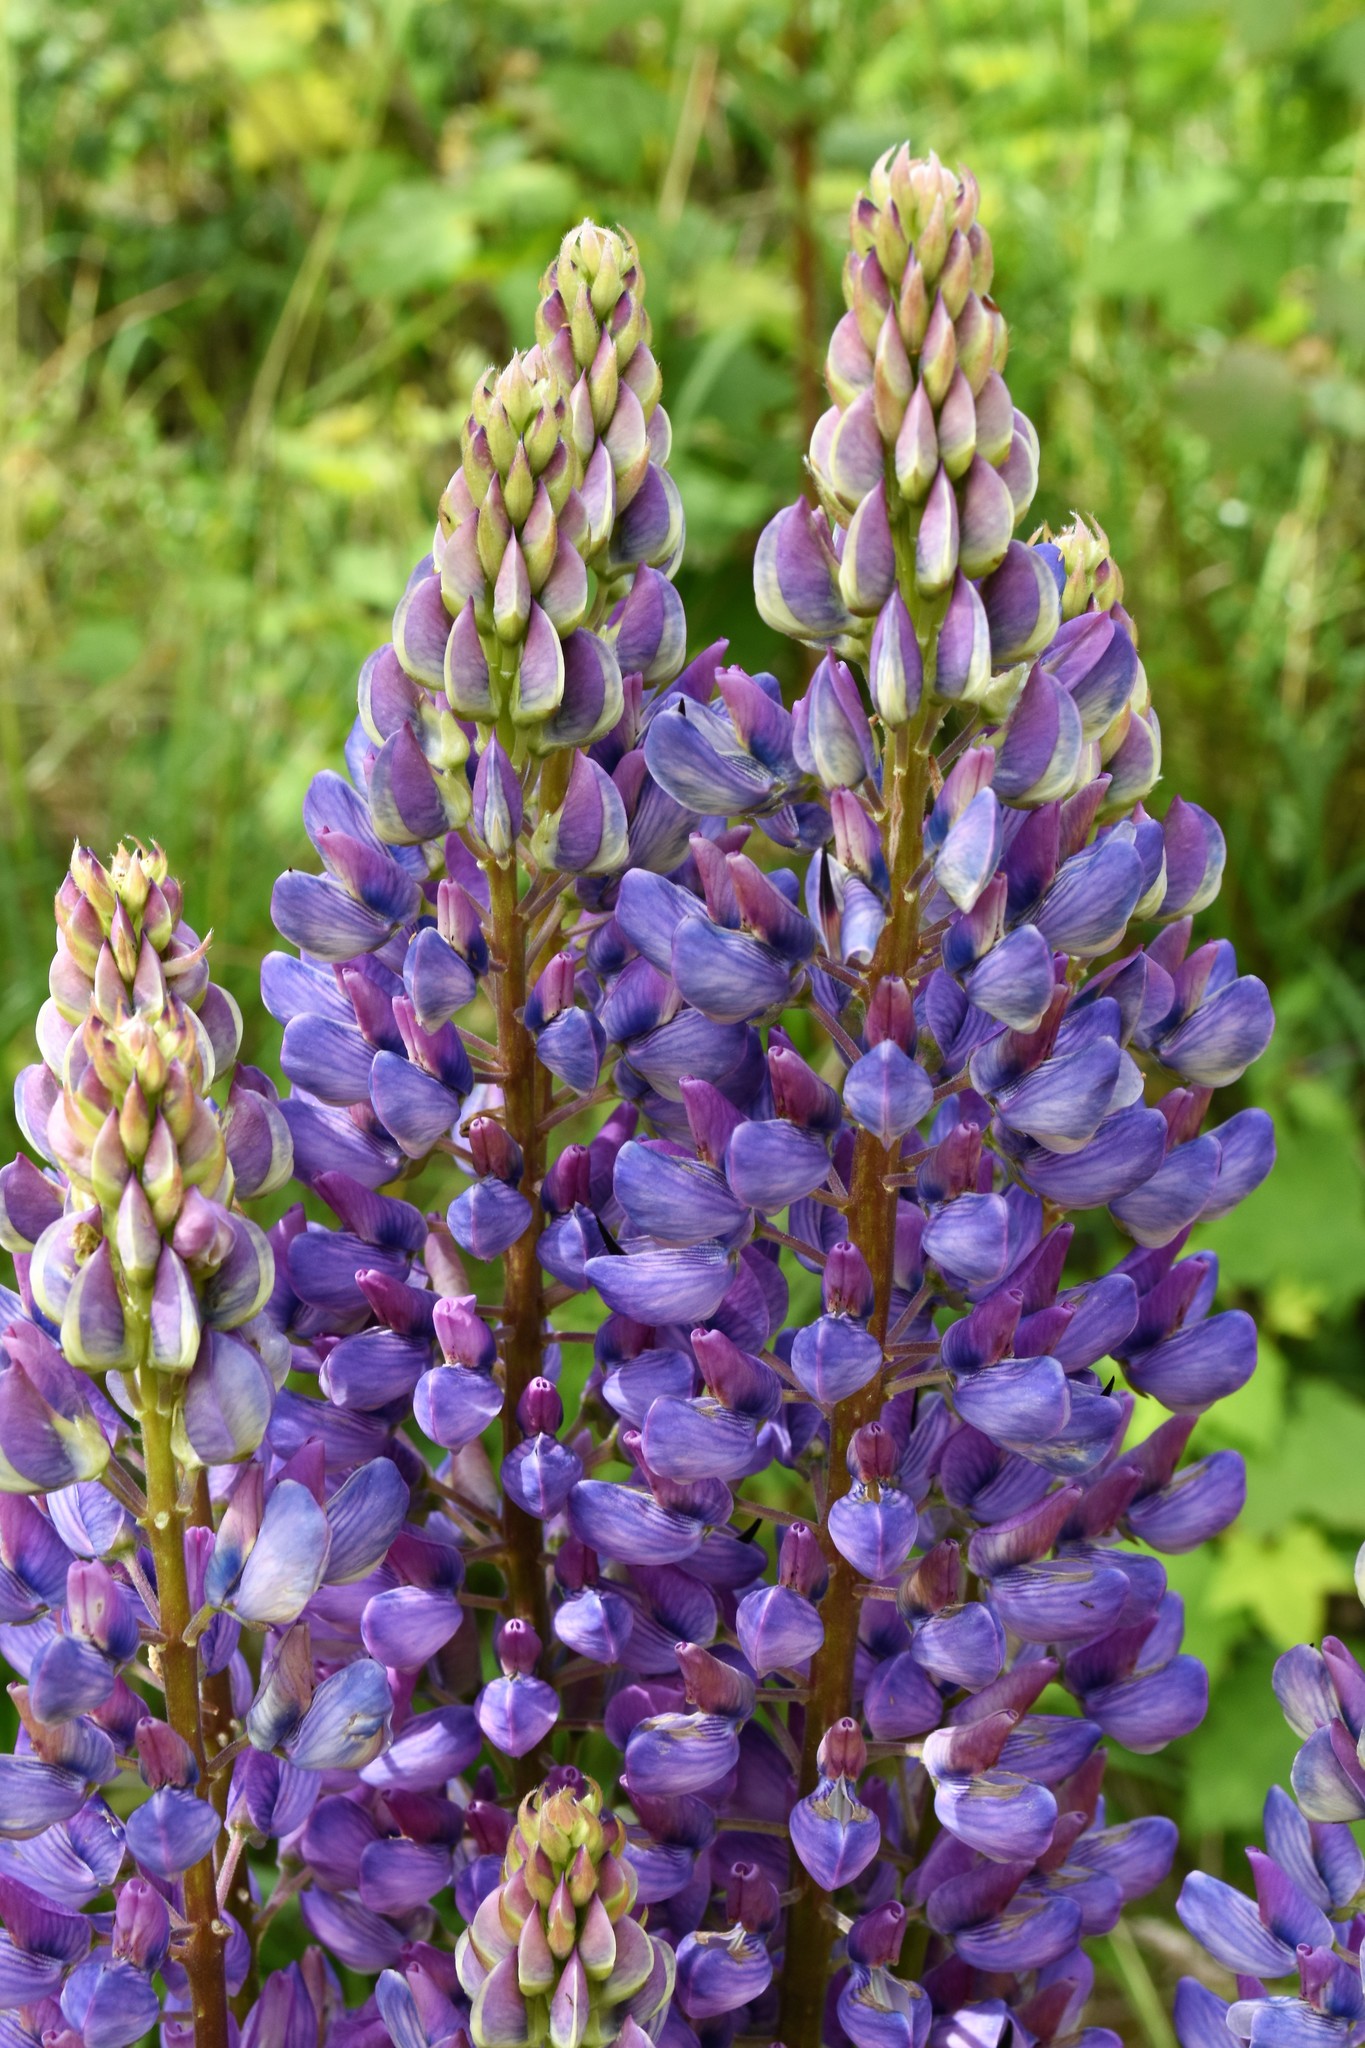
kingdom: Plantae
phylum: Tracheophyta
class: Magnoliopsida
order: Fabales
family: Fabaceae
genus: Lupinus
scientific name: Lupinus polyphyllus
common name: Garden lupin
